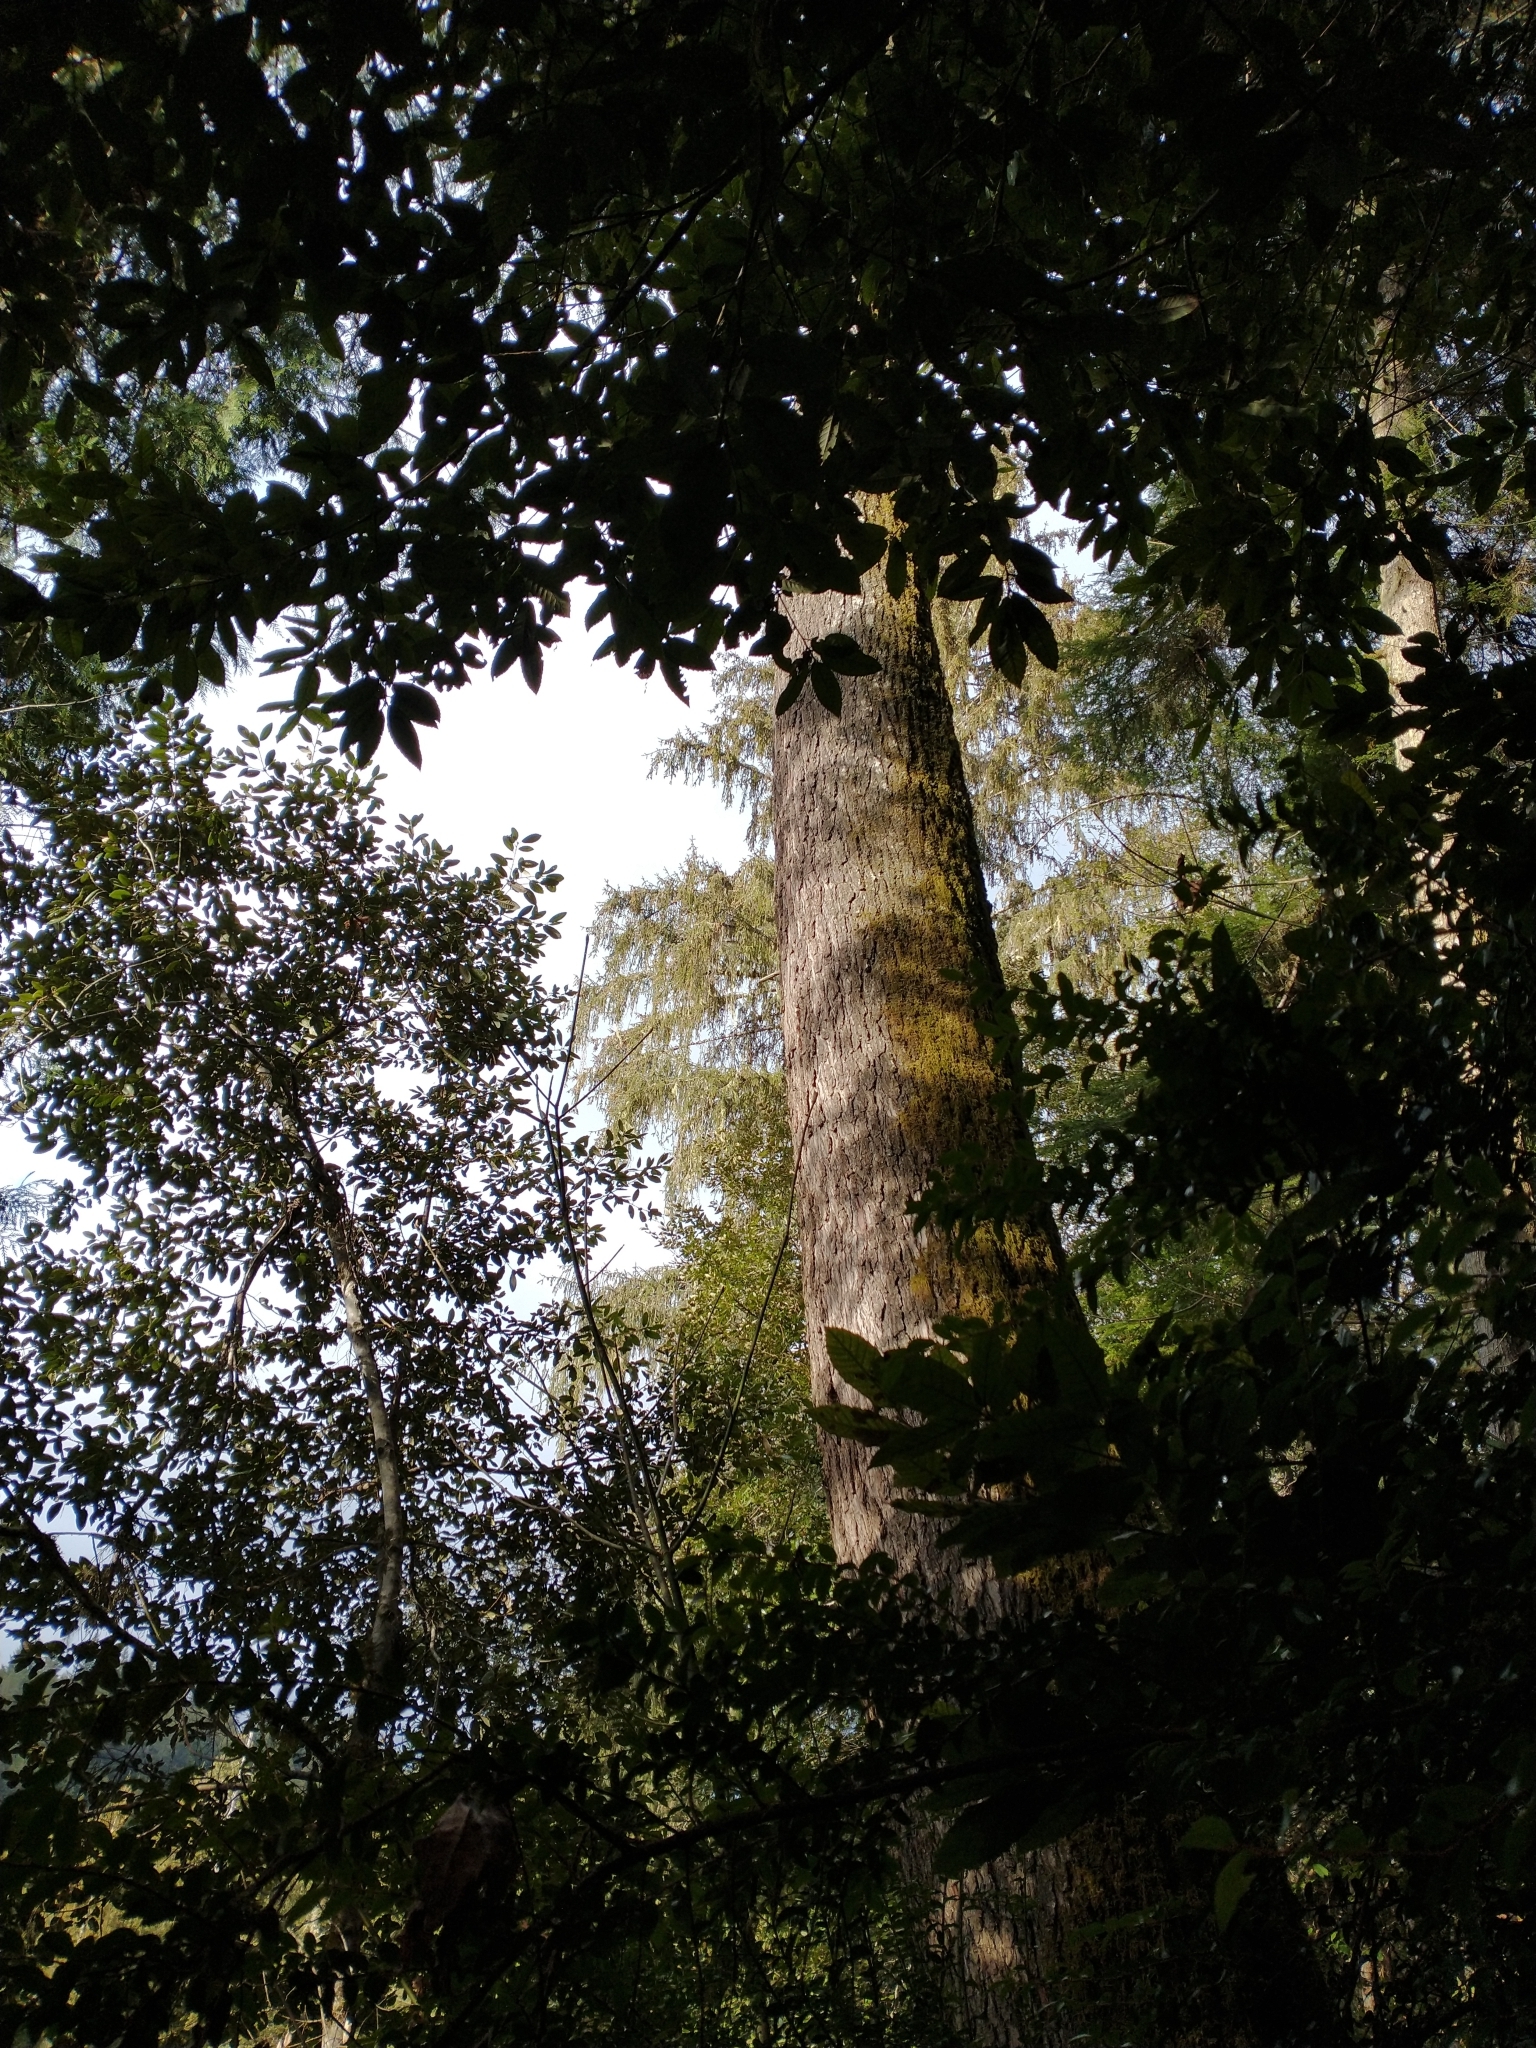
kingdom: Plantae
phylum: Tracheophyta
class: Pinopsida
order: Pinales
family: Pinaceae
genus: Tsuga
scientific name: Tsuga heterophylla
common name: Western hemlock
